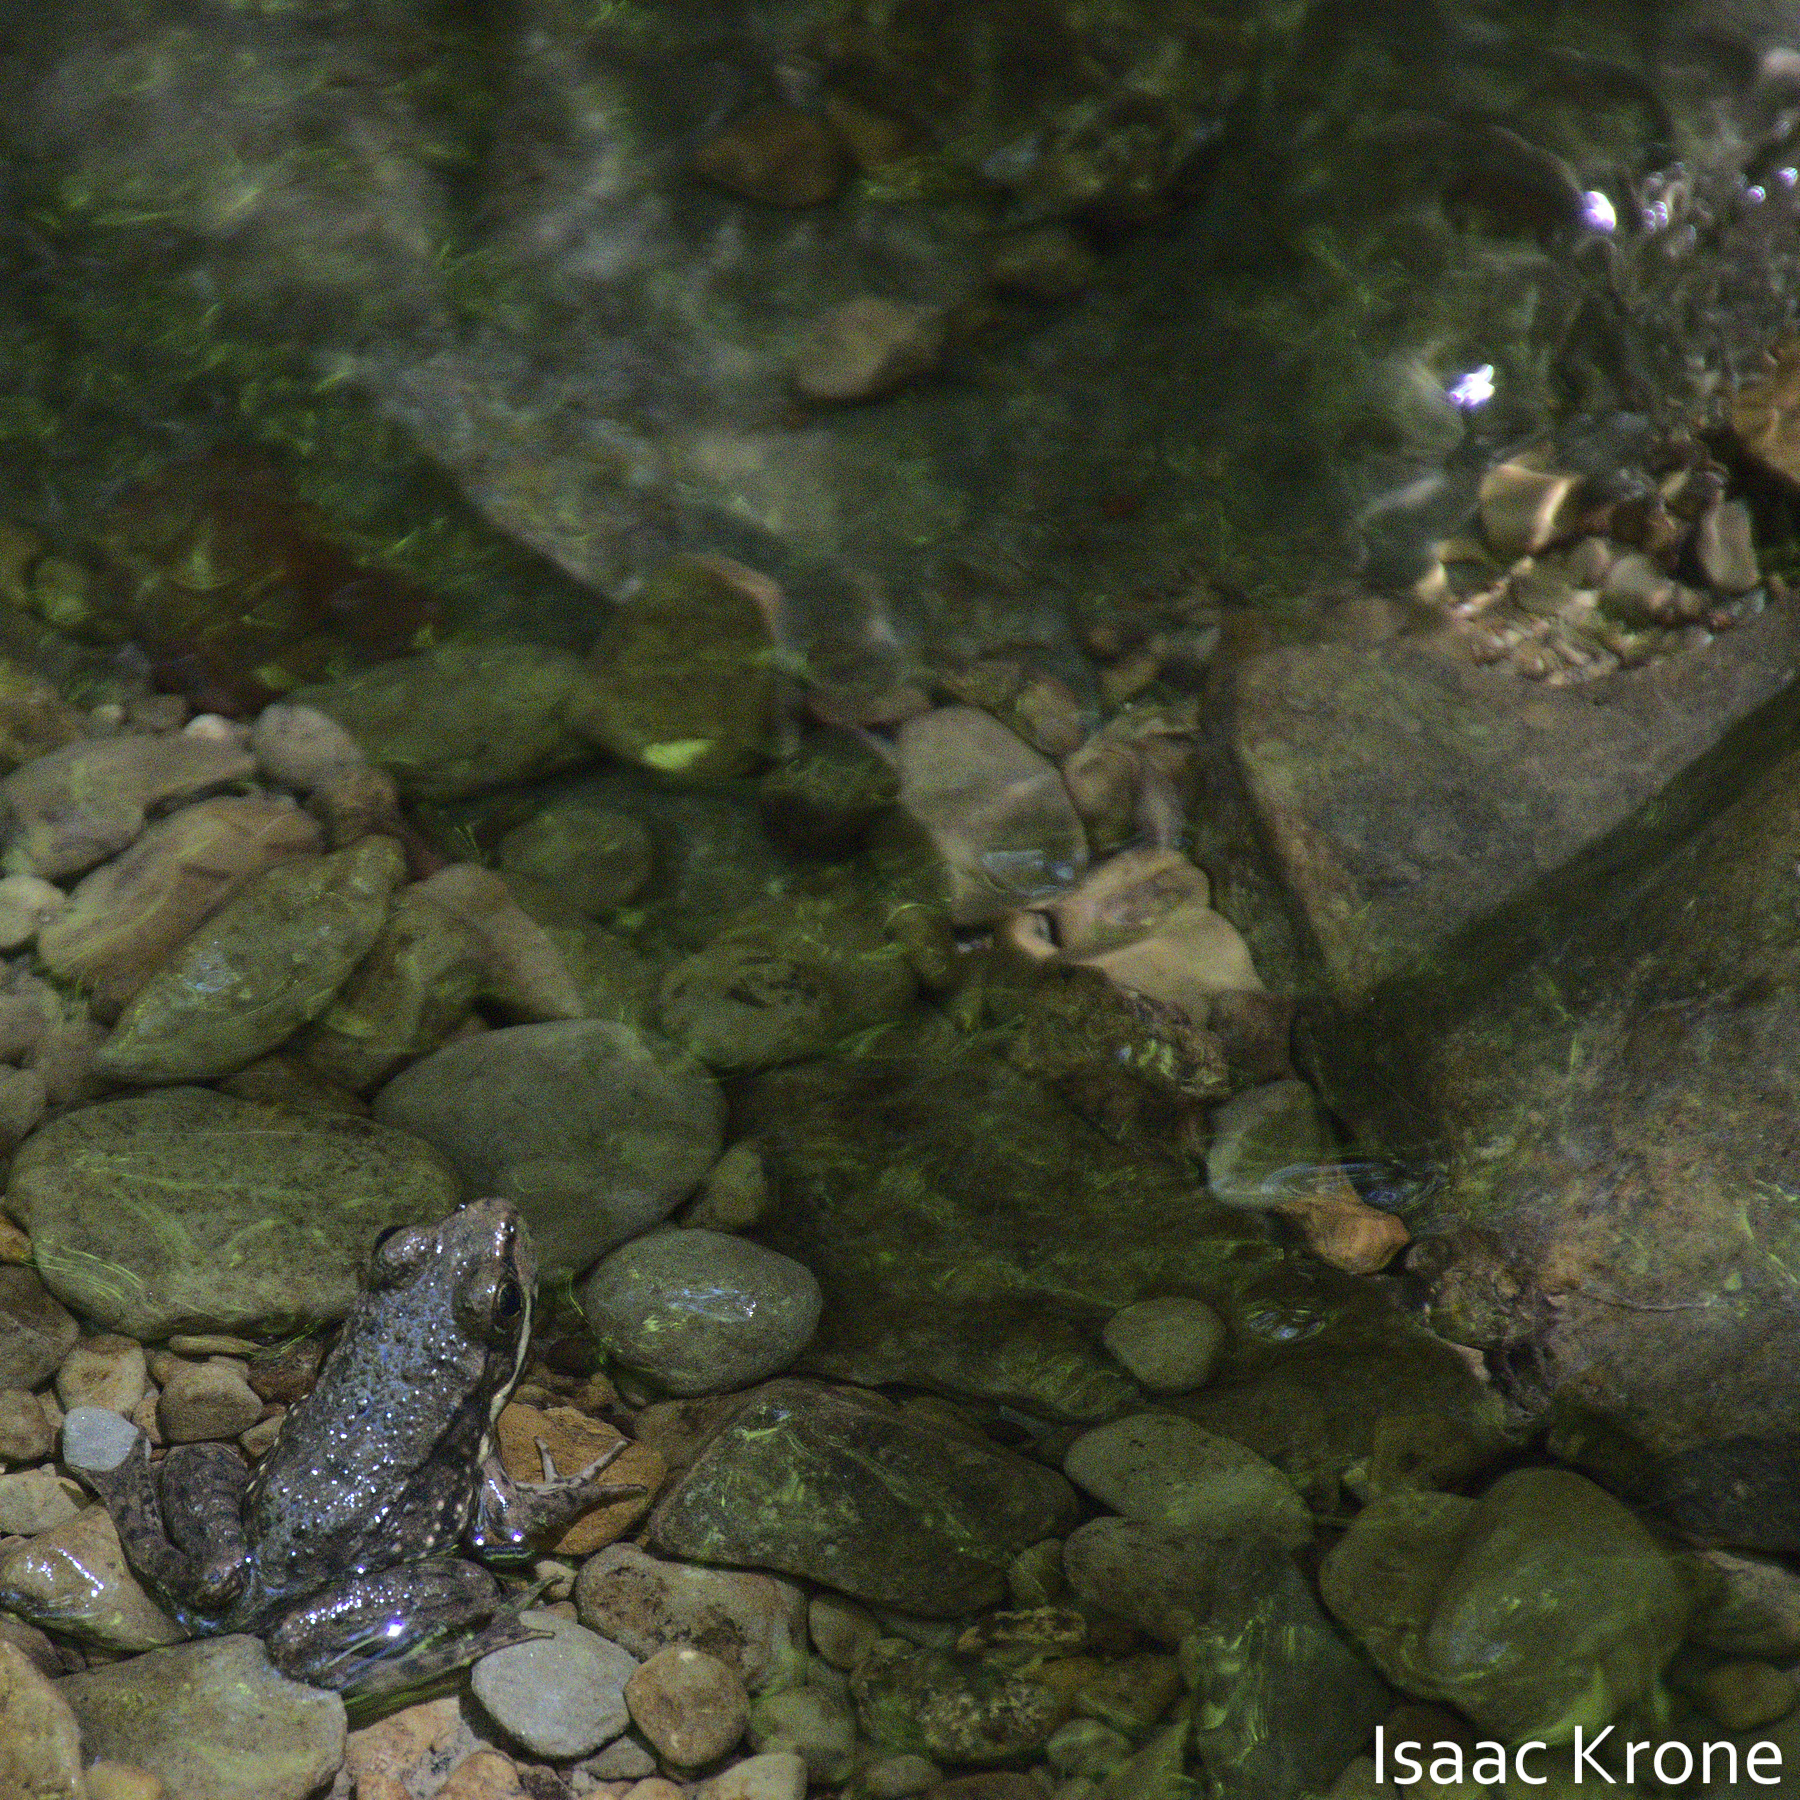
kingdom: Animalia
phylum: Chordata
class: Amphibia
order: Anura
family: Ranidae
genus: Lithobates
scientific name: Lithobates clamitans
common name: Green frog
